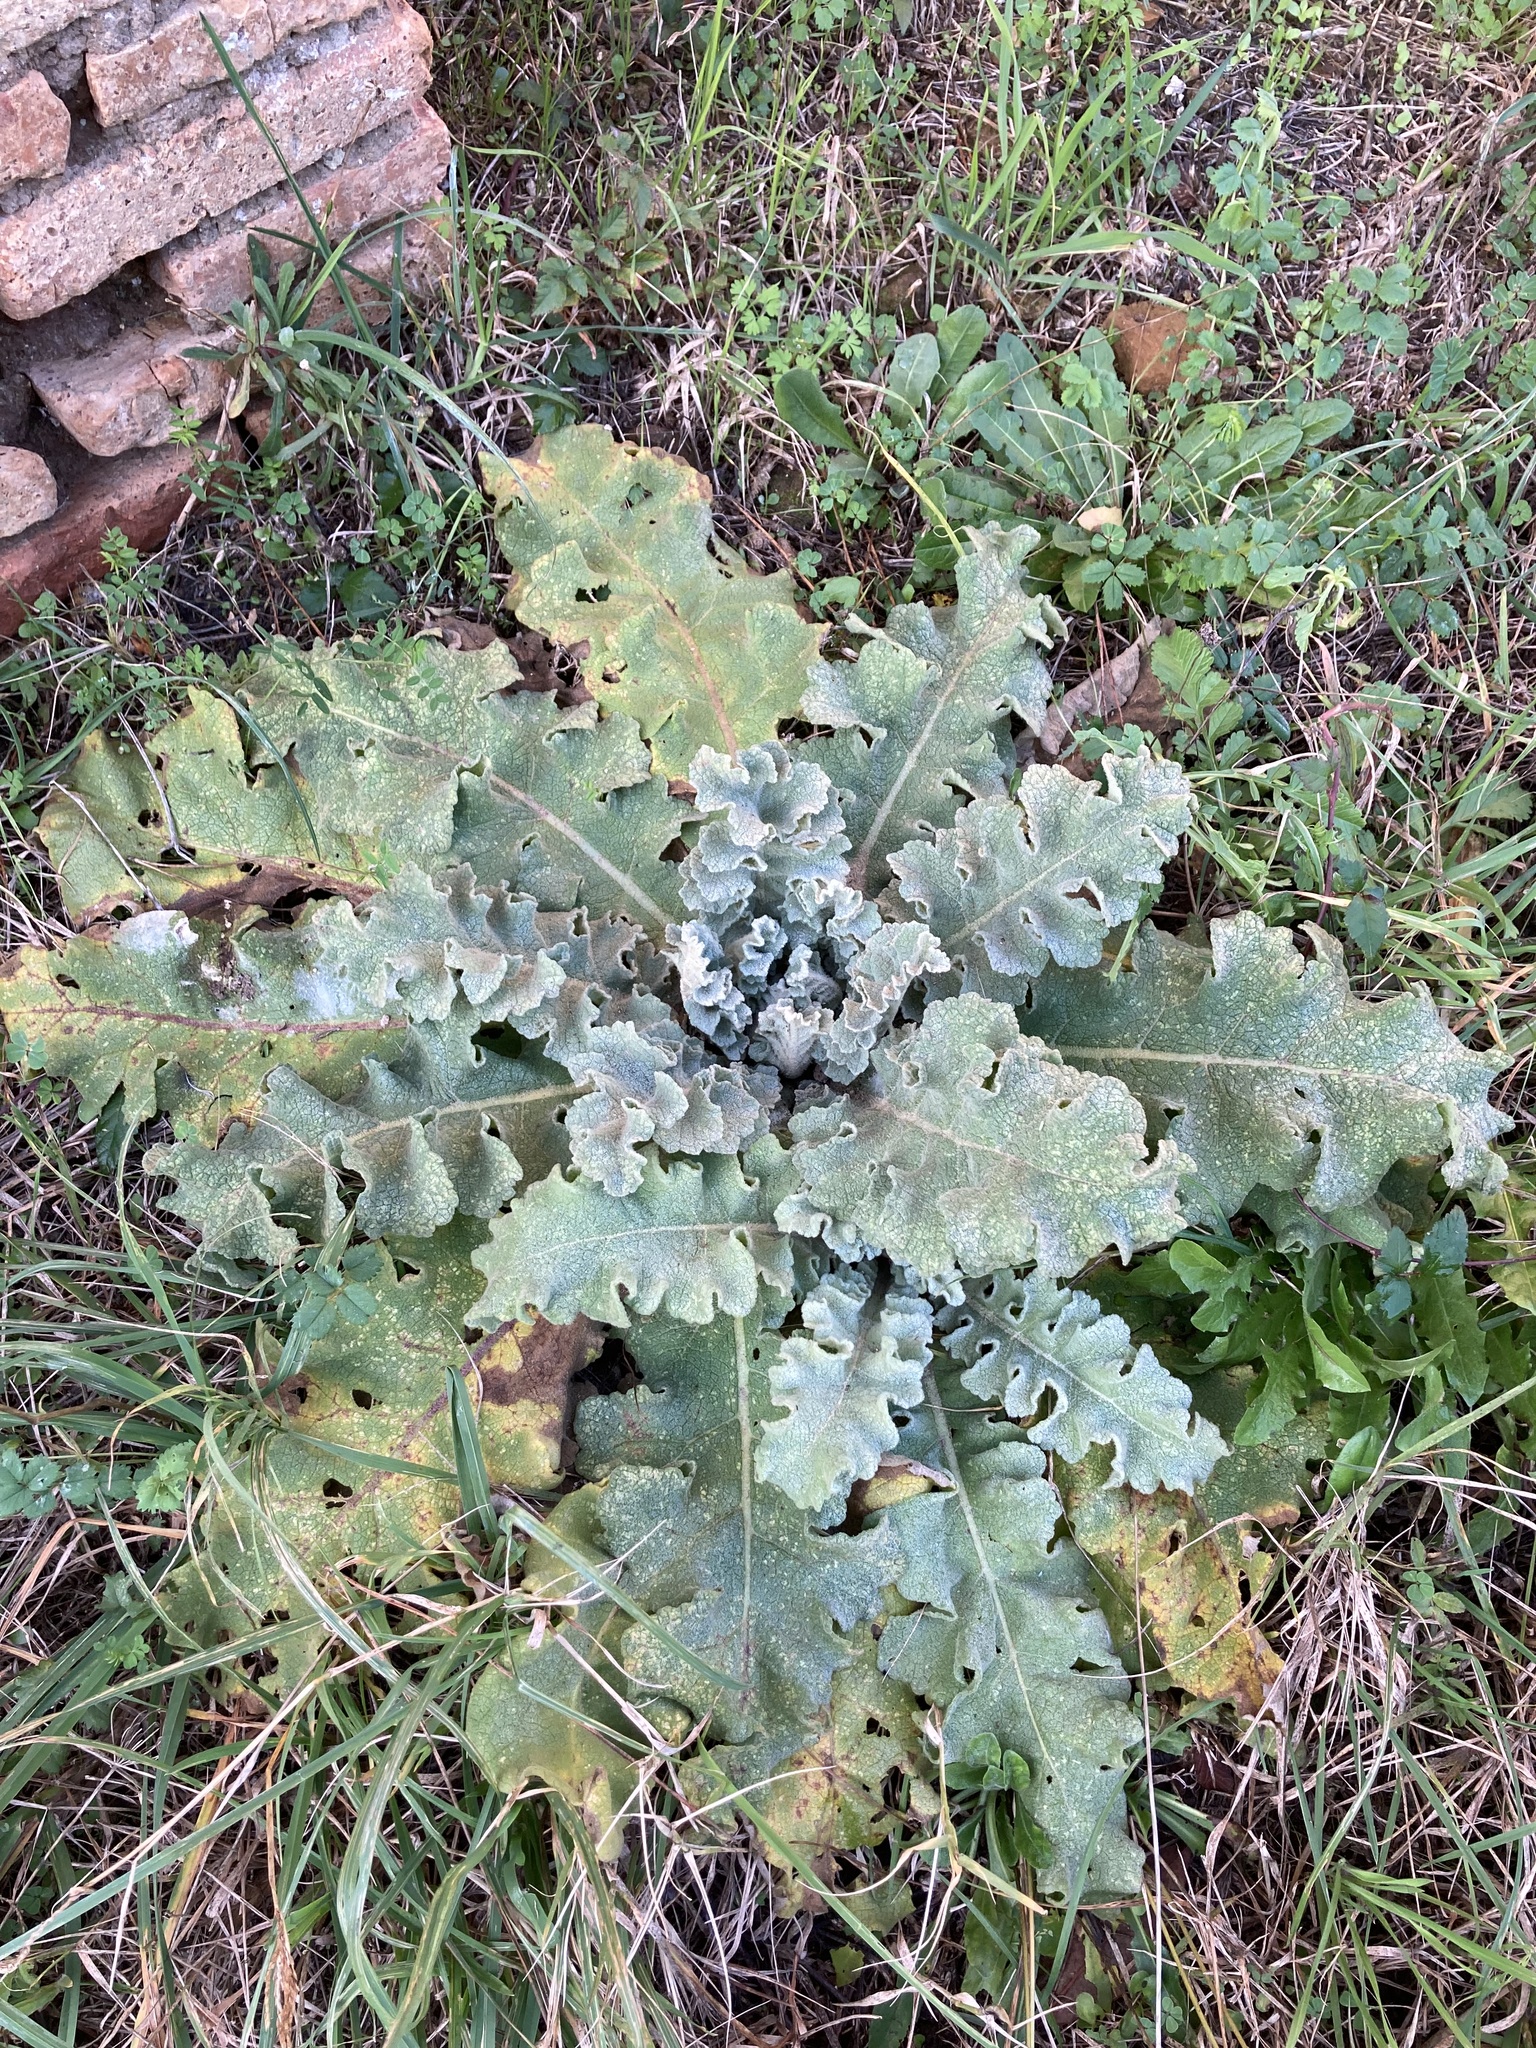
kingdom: Plantae
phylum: Tracheophyta
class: Magnoliopsida
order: Lamiales
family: Scrophulariaceae
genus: Verbascum
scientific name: Verbascum sinuatum
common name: Wavyleaf mullein
